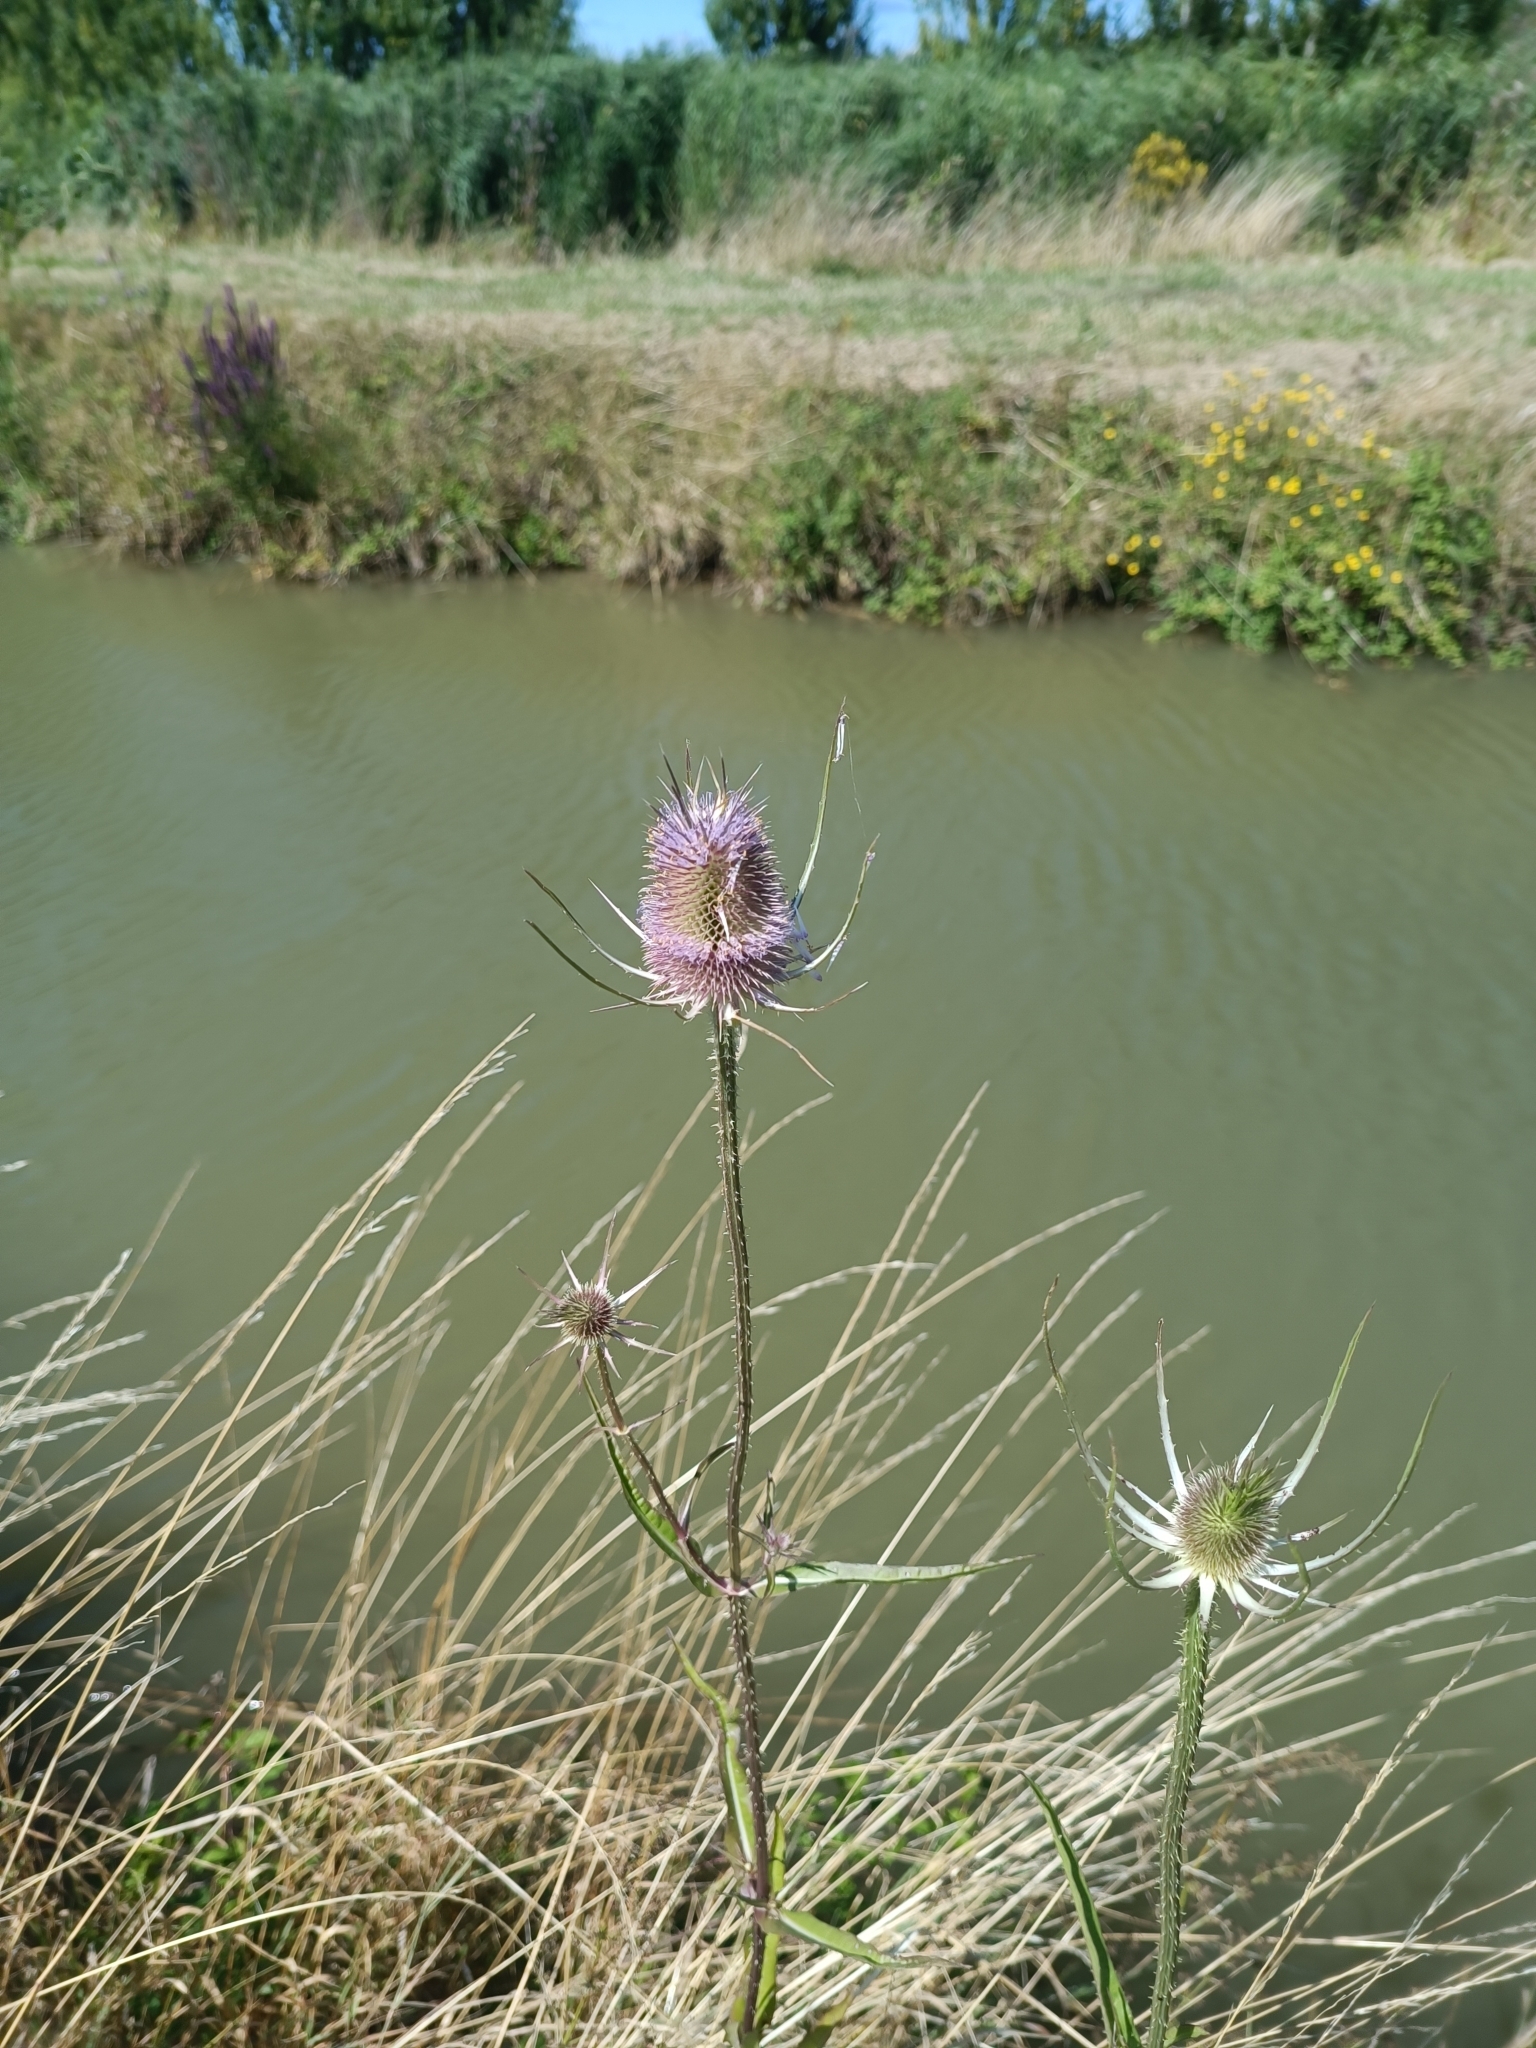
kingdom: Plantae
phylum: Tracheophyta
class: Magnoliopsida
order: Dipsacales
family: Caprifoliaceae
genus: Dipsacus
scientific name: Dipsacus fullonum
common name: Teasel
